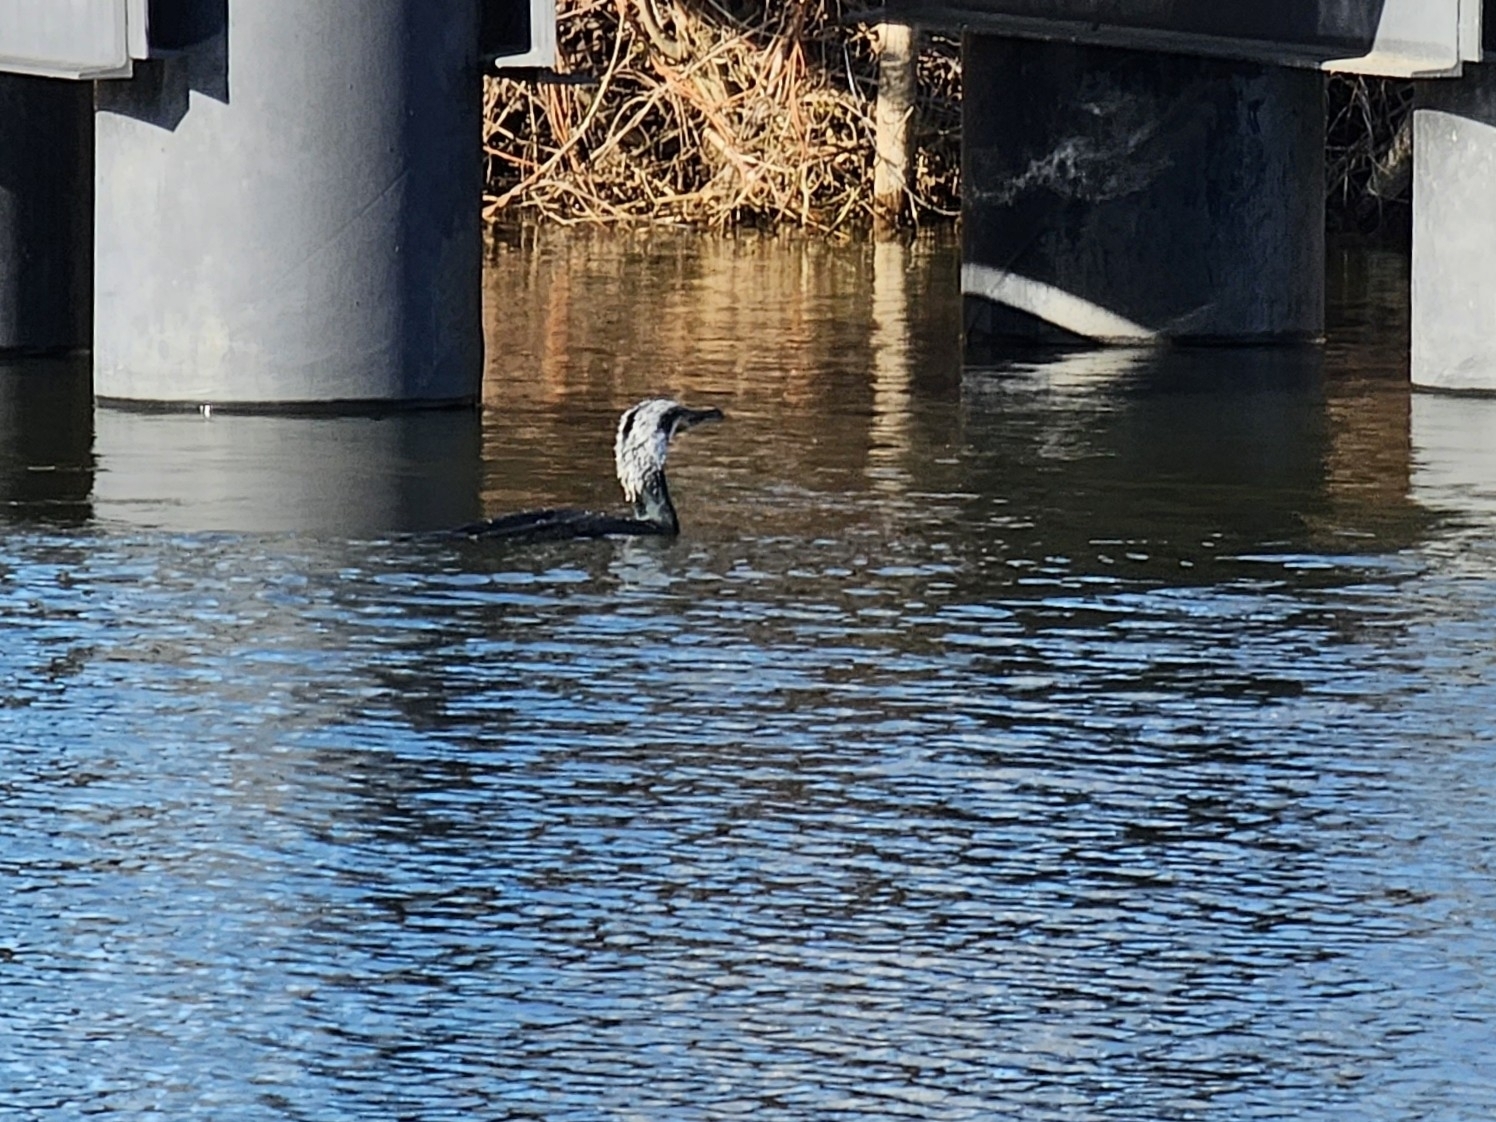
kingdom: Animalia
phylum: Chordata
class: Aves
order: Suliformes
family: Phalacrocoracidae
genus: Phalacrocorax
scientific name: Phalacrocorax carbo
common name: Great cormorant
